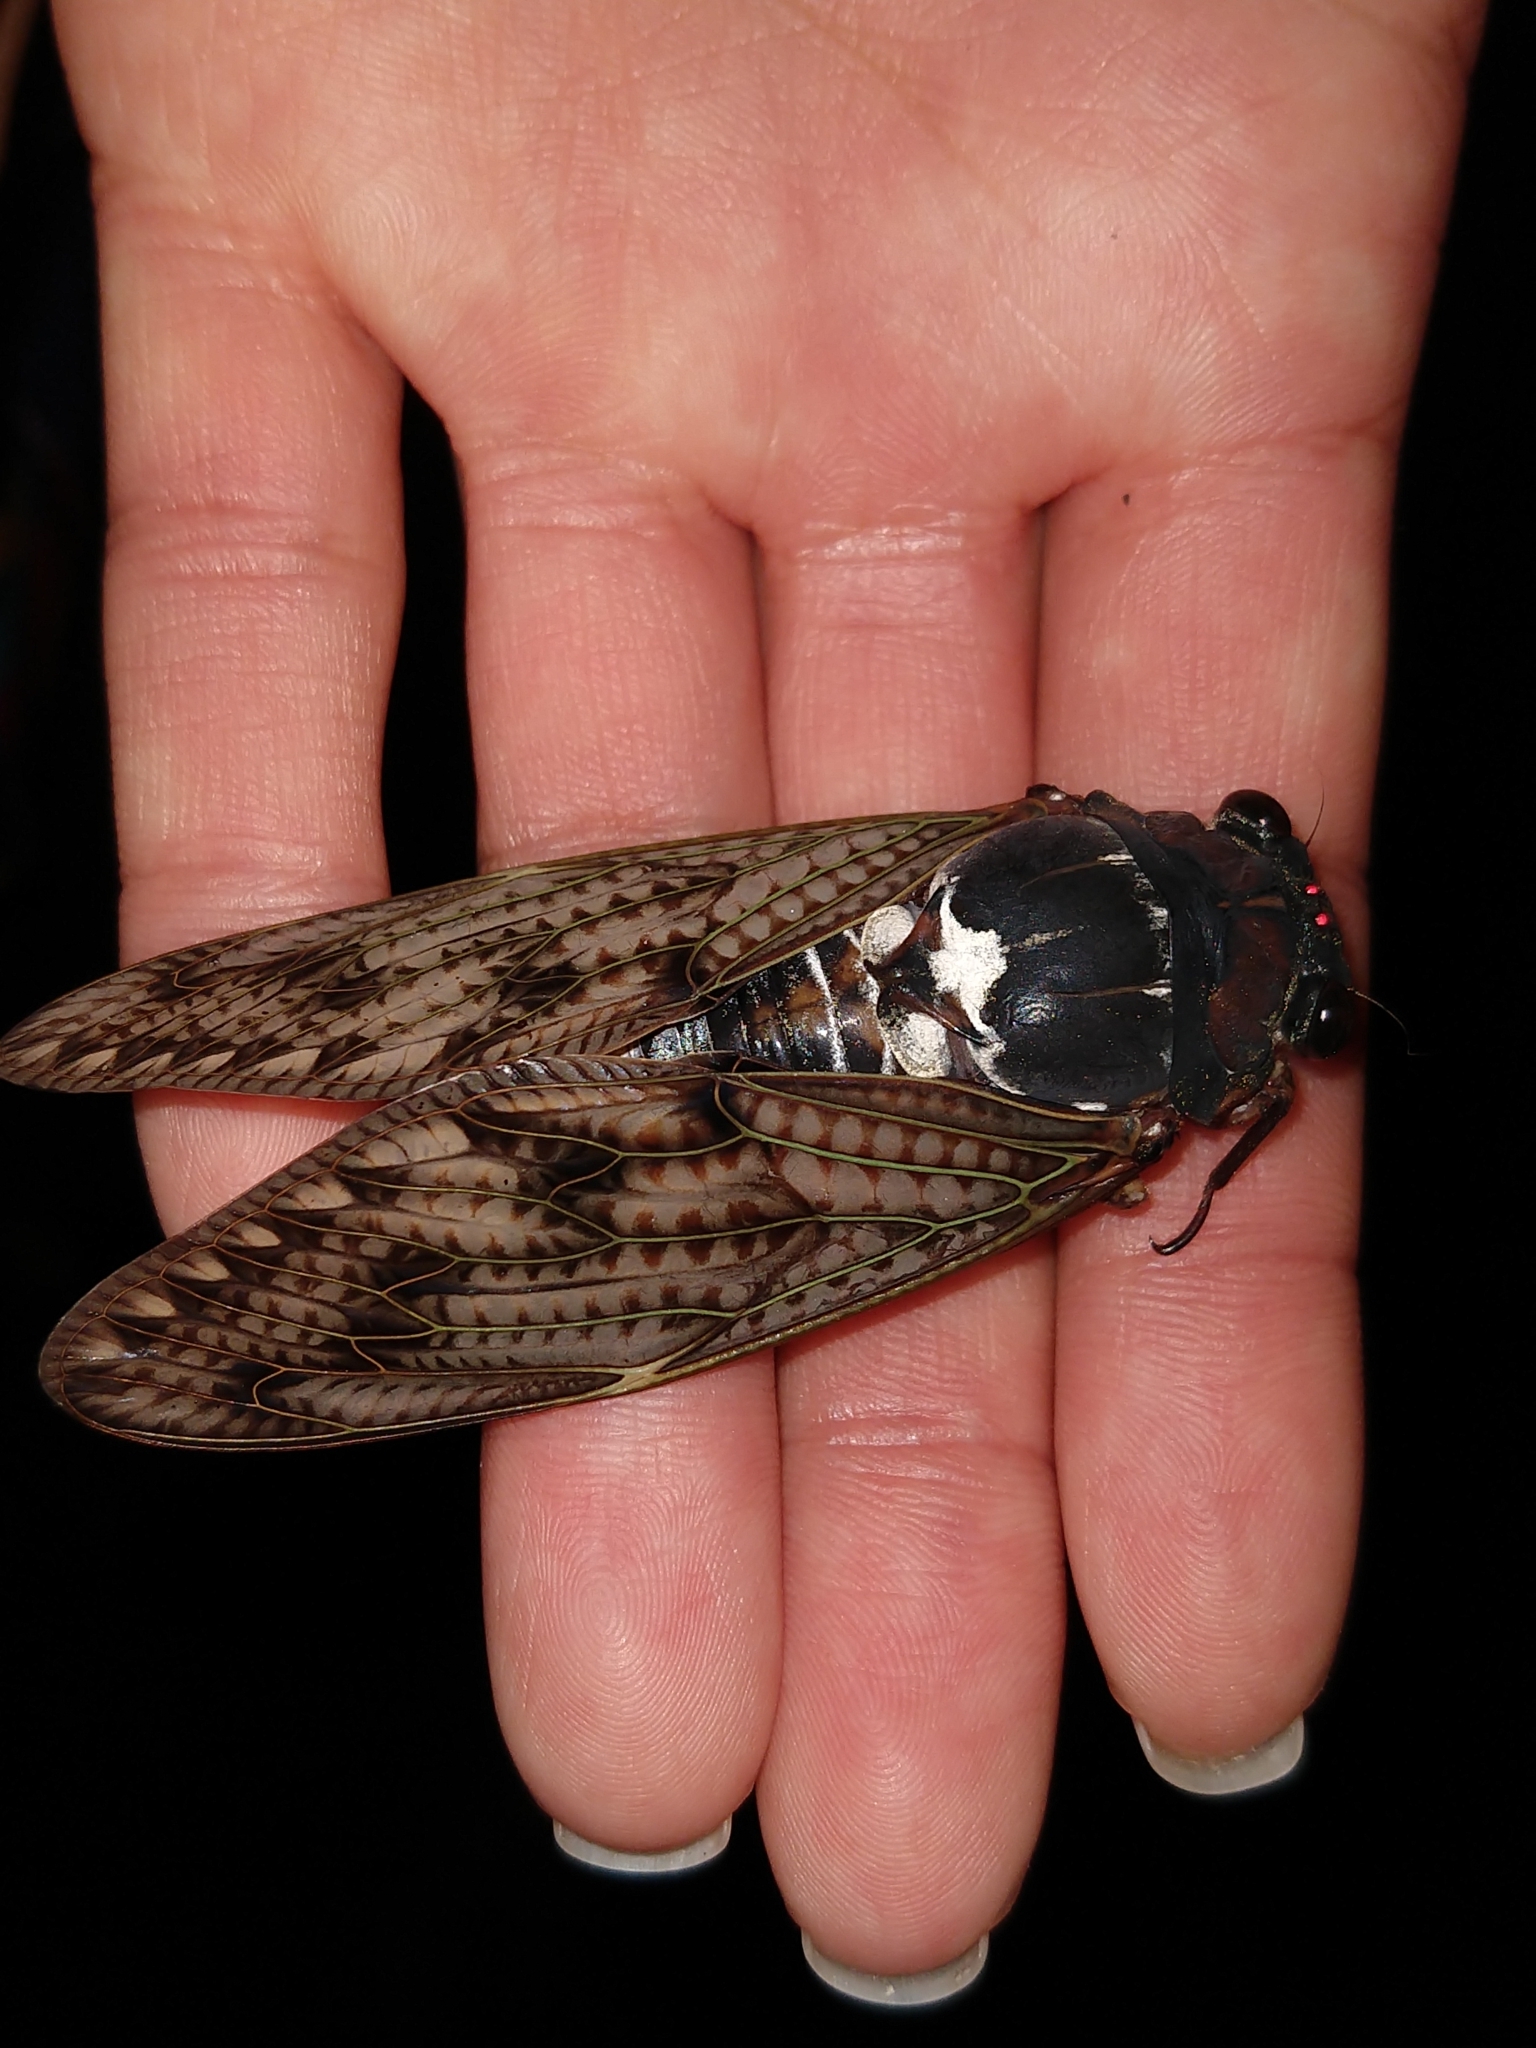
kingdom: Animalia
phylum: Arthropoda
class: Insecta
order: Hemiptera
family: Cicadidae
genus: Graptopsaltria
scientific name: Graptopsaltria nigrofuscata
